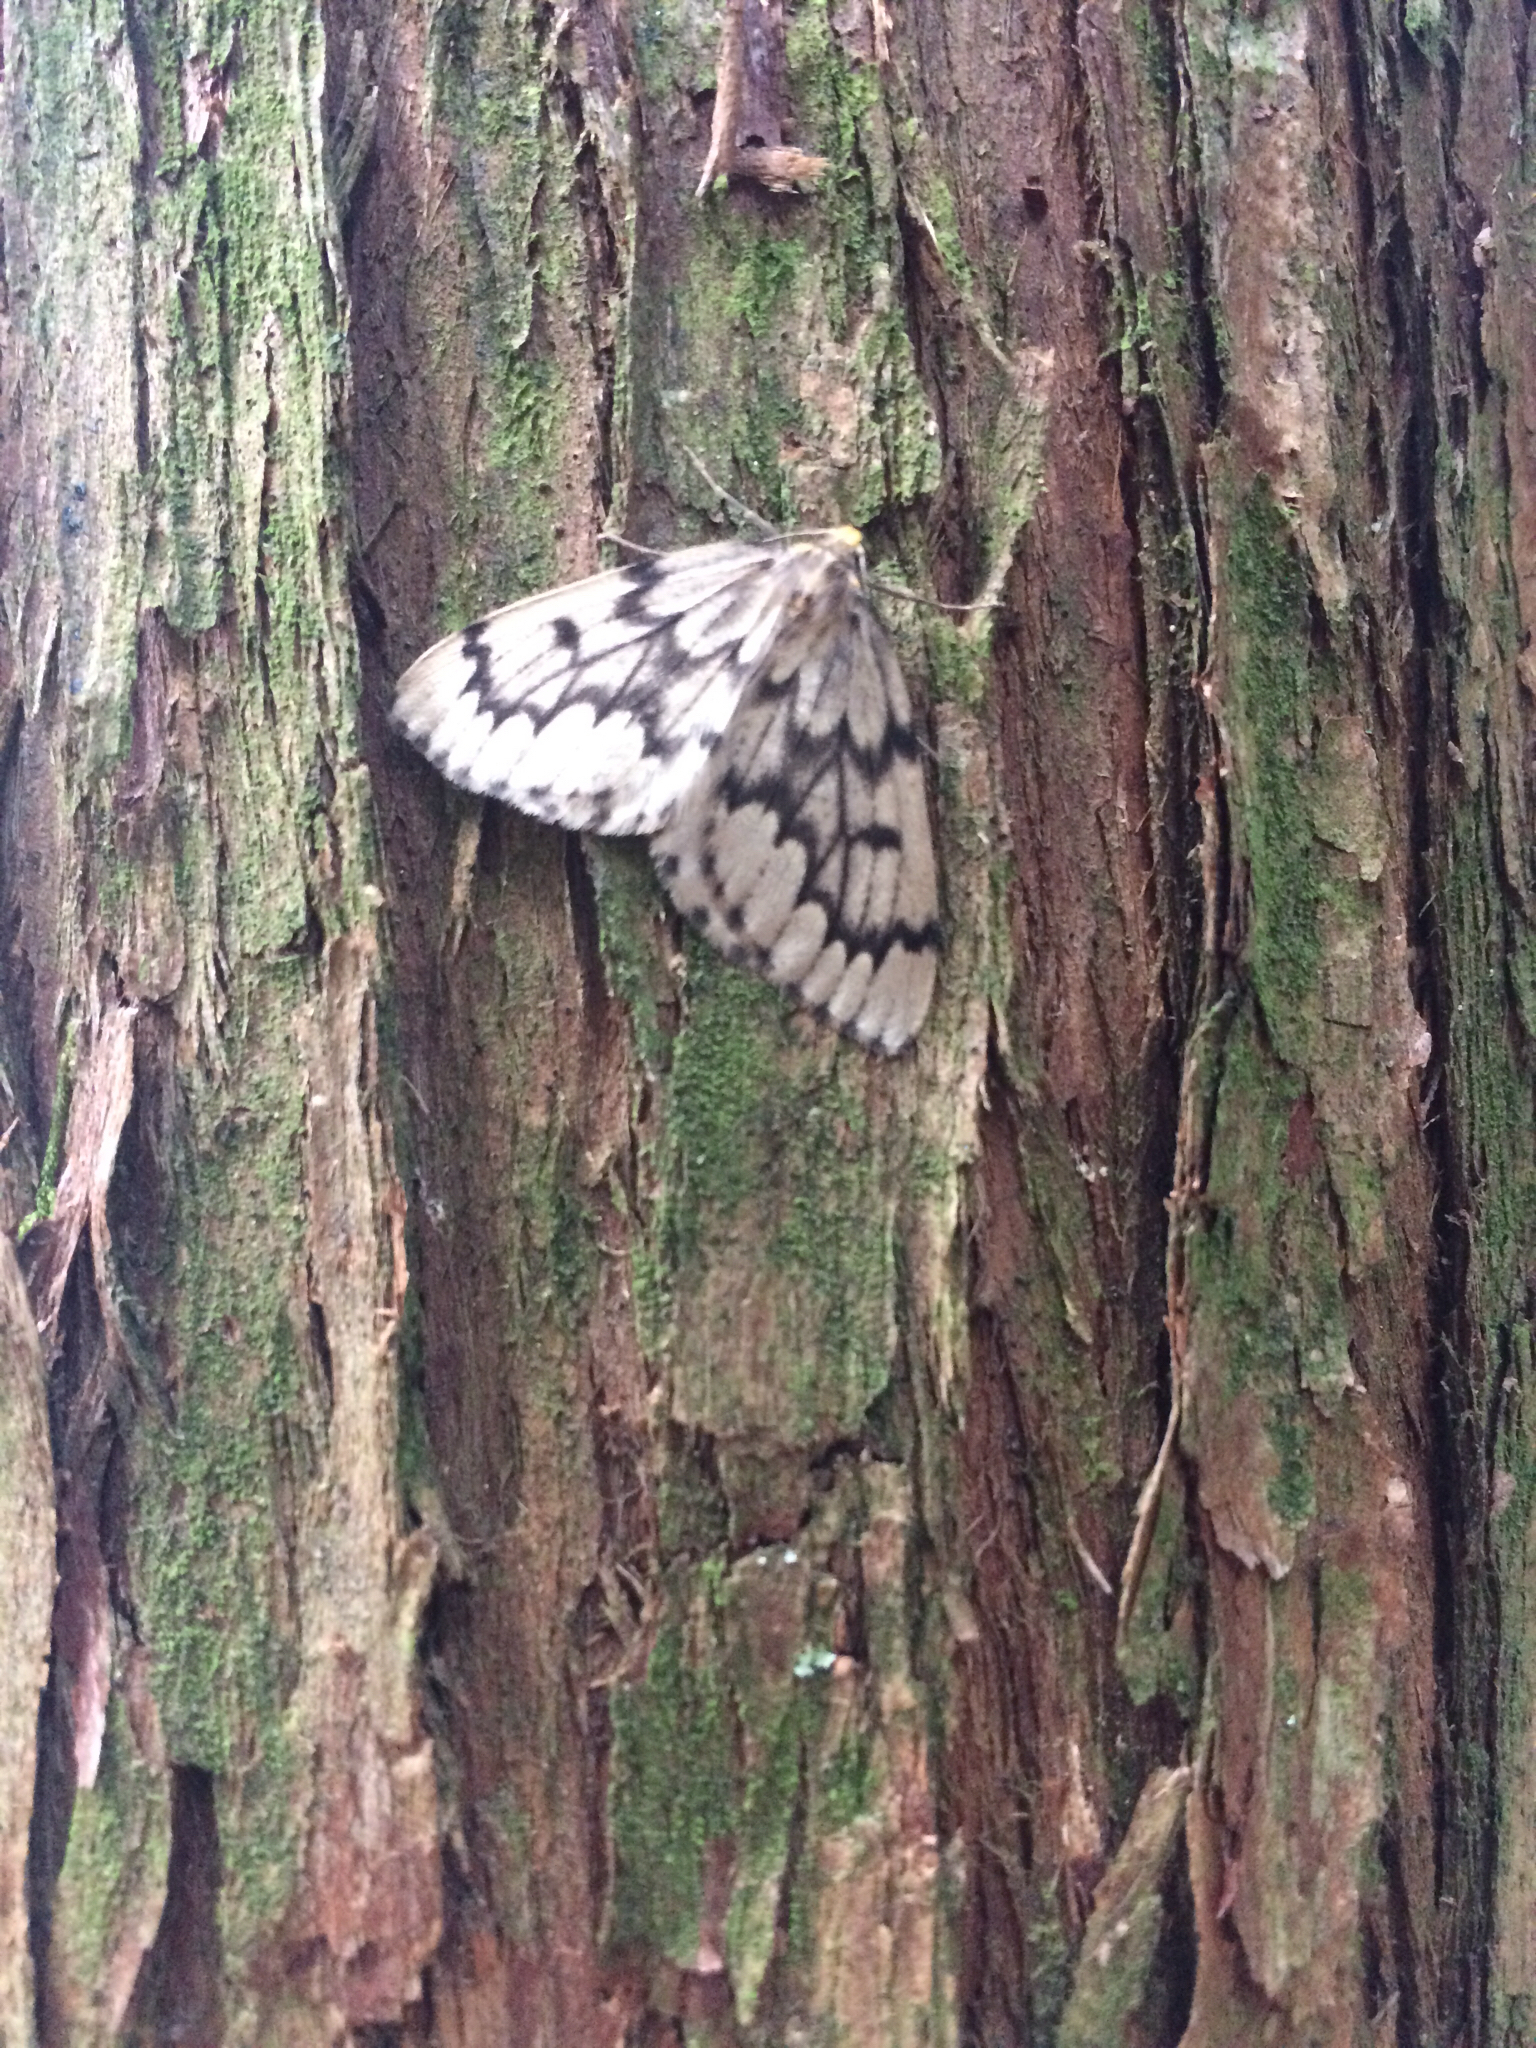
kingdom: Animalia
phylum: Arthropoda
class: Insecta
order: Lepidoptera
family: Geometridae
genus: Nepytia
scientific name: Nepytia phantasmaria
